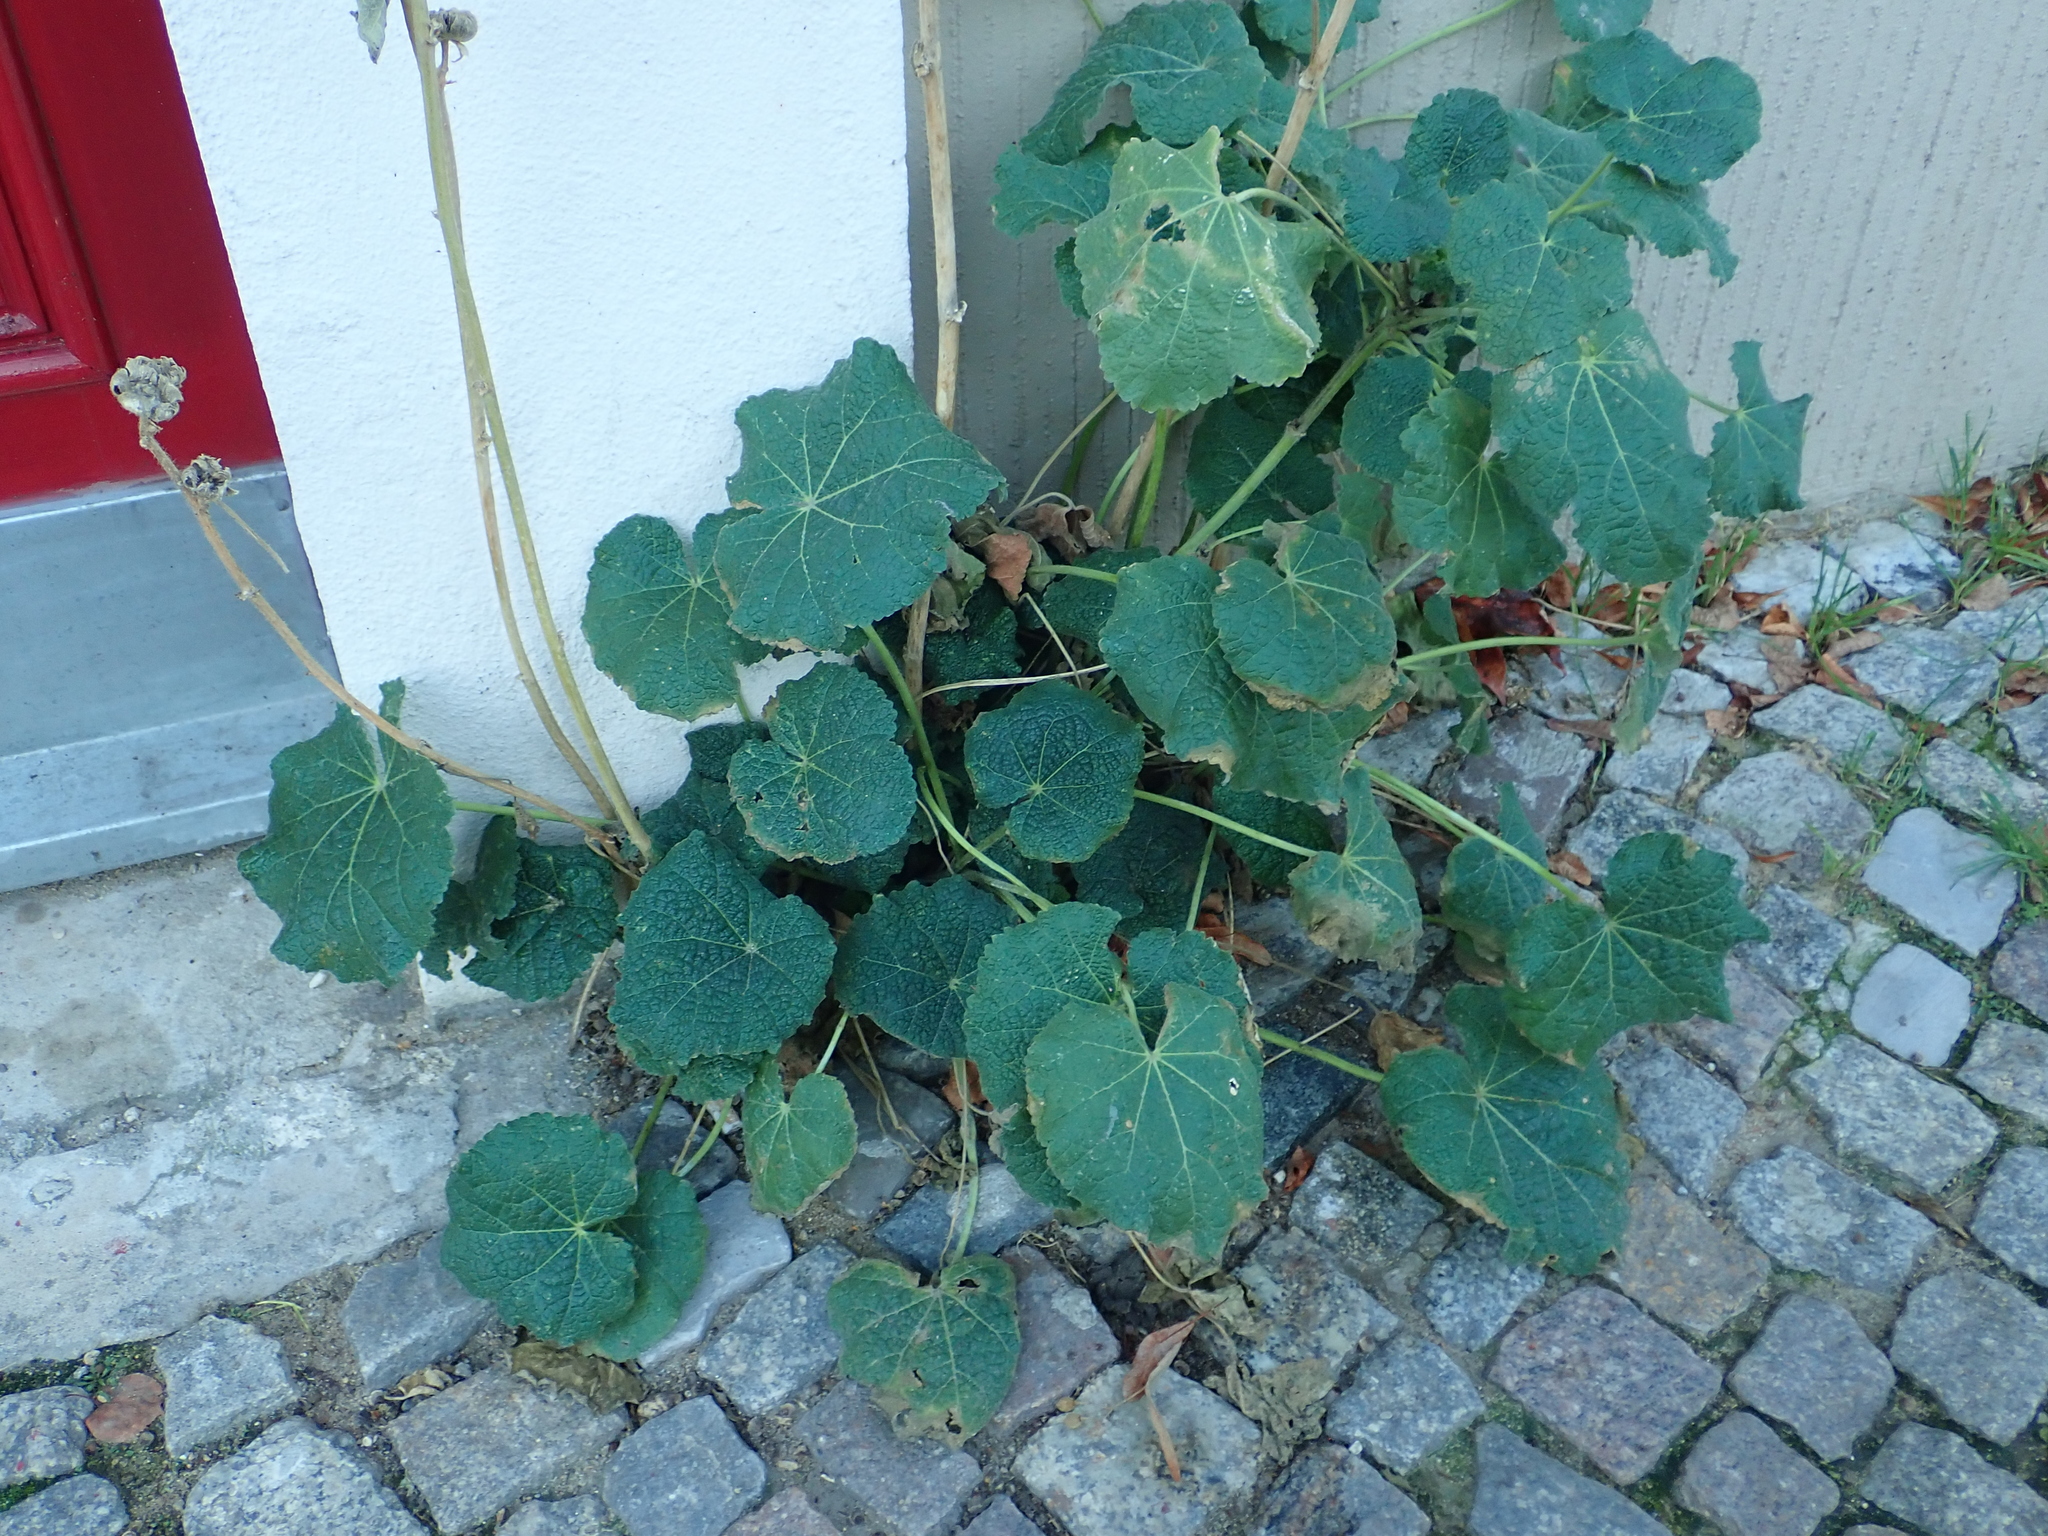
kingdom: Plantae
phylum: Tracheophyta
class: Magnoliopsida
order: Malvales
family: Malvaceae
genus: Alcea
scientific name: Alcea rosea
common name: Hollyhock
